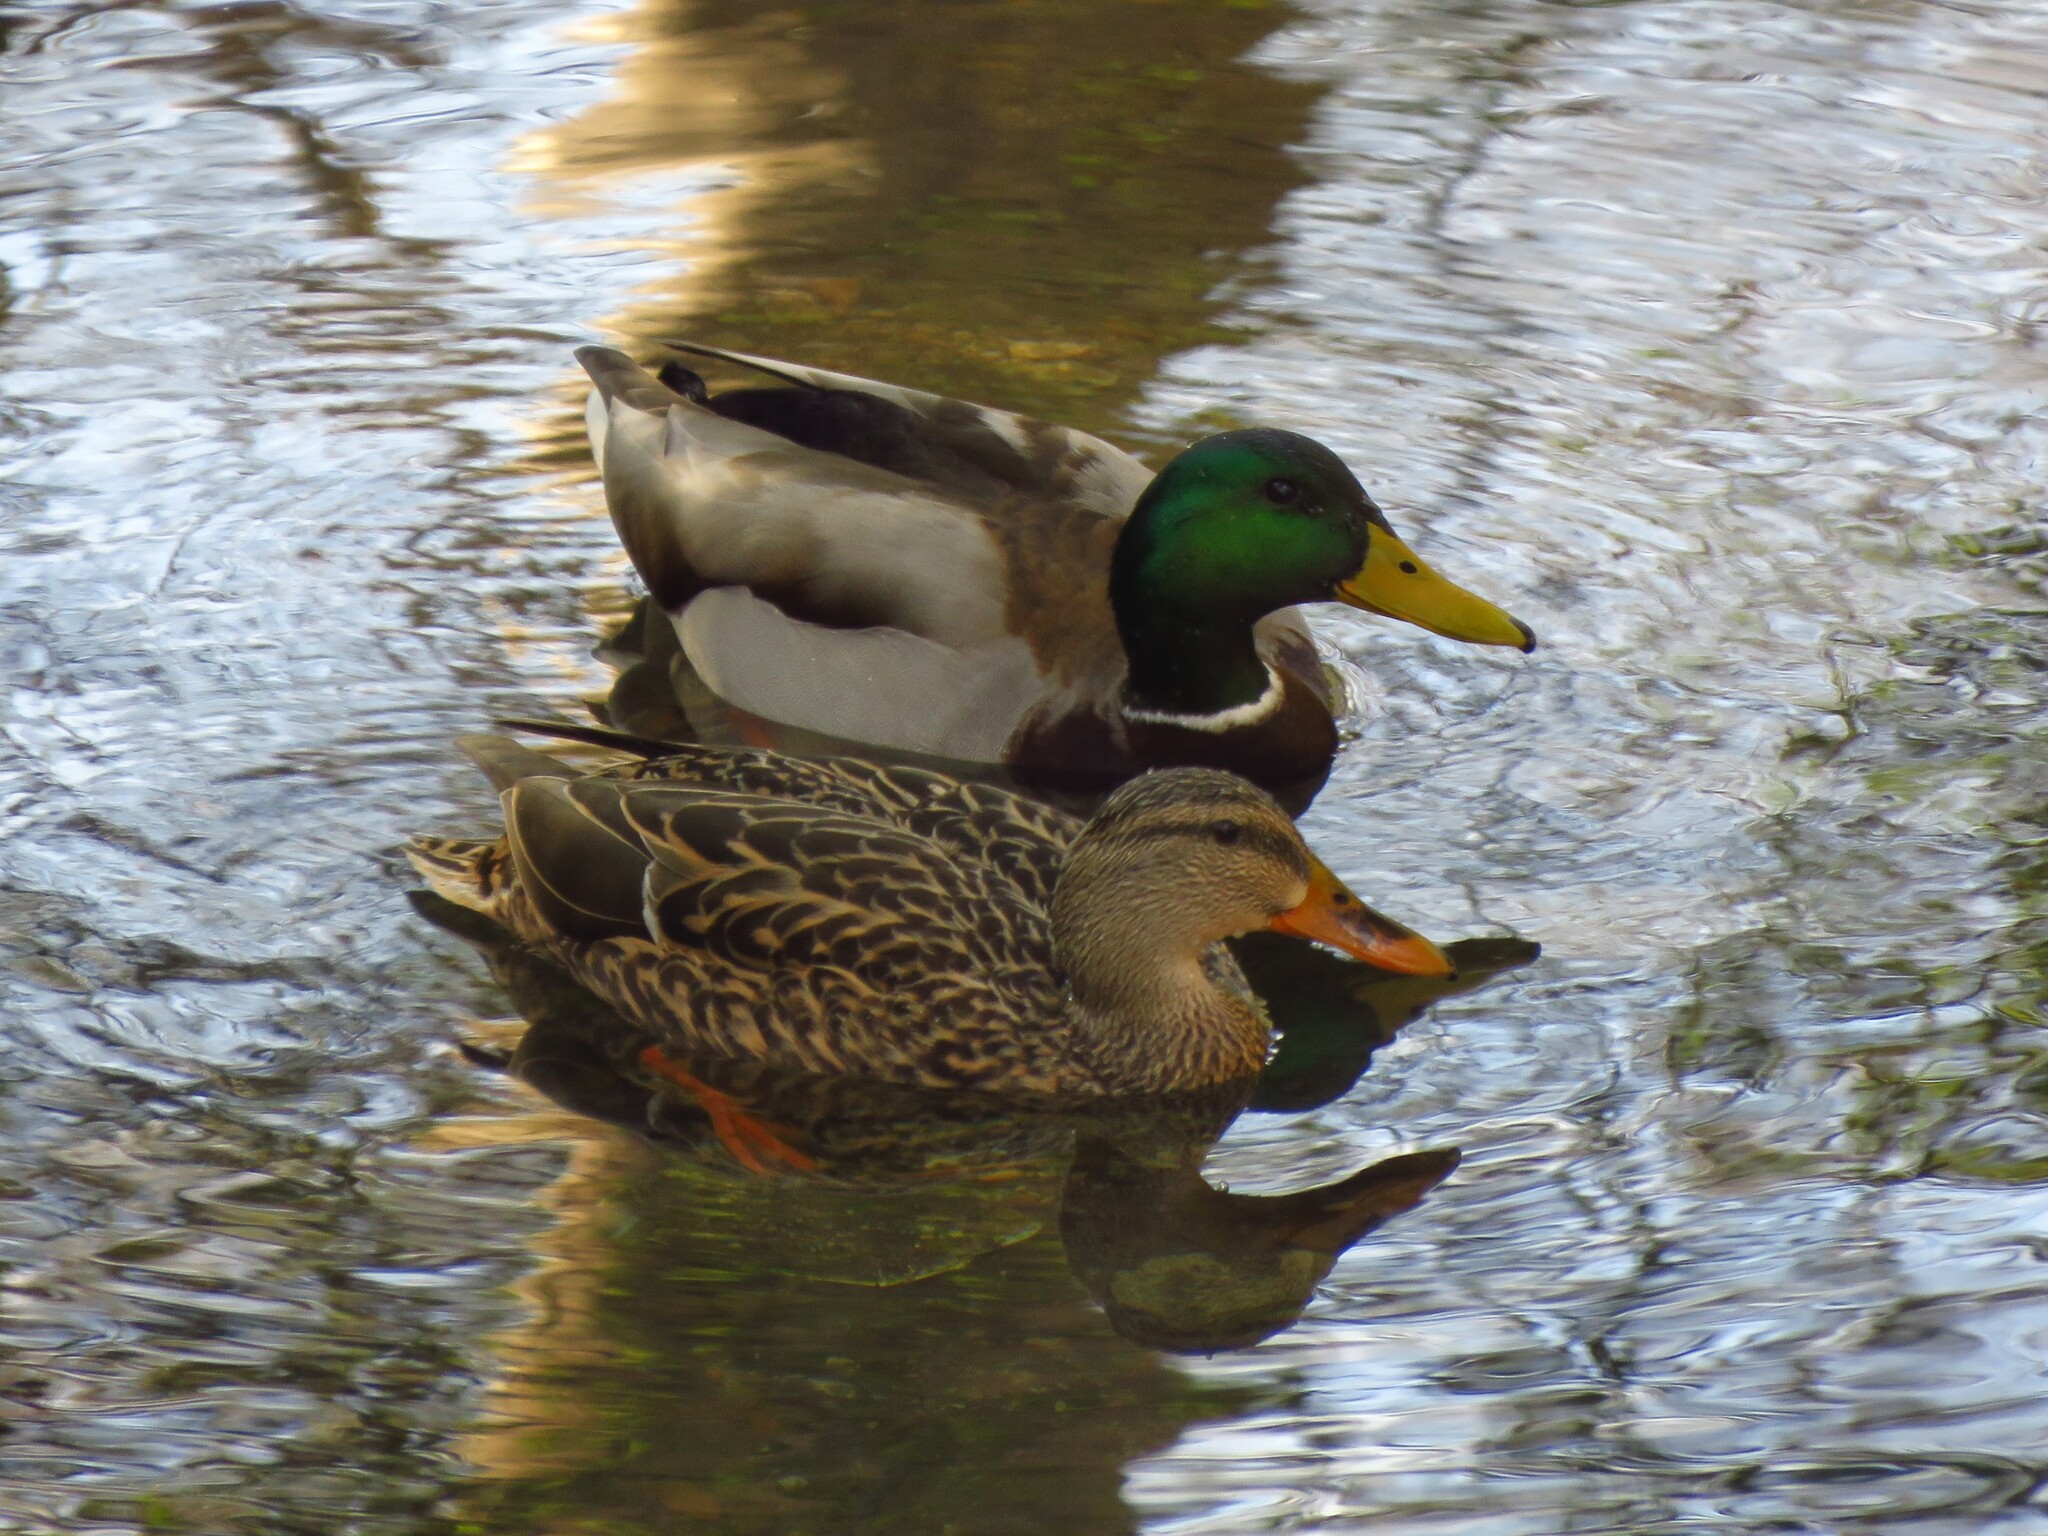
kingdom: Animalia
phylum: Chordata
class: Aves
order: Anseriformes
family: Anatidae
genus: Anas
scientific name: Anas platyrhynchos
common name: Mallard
